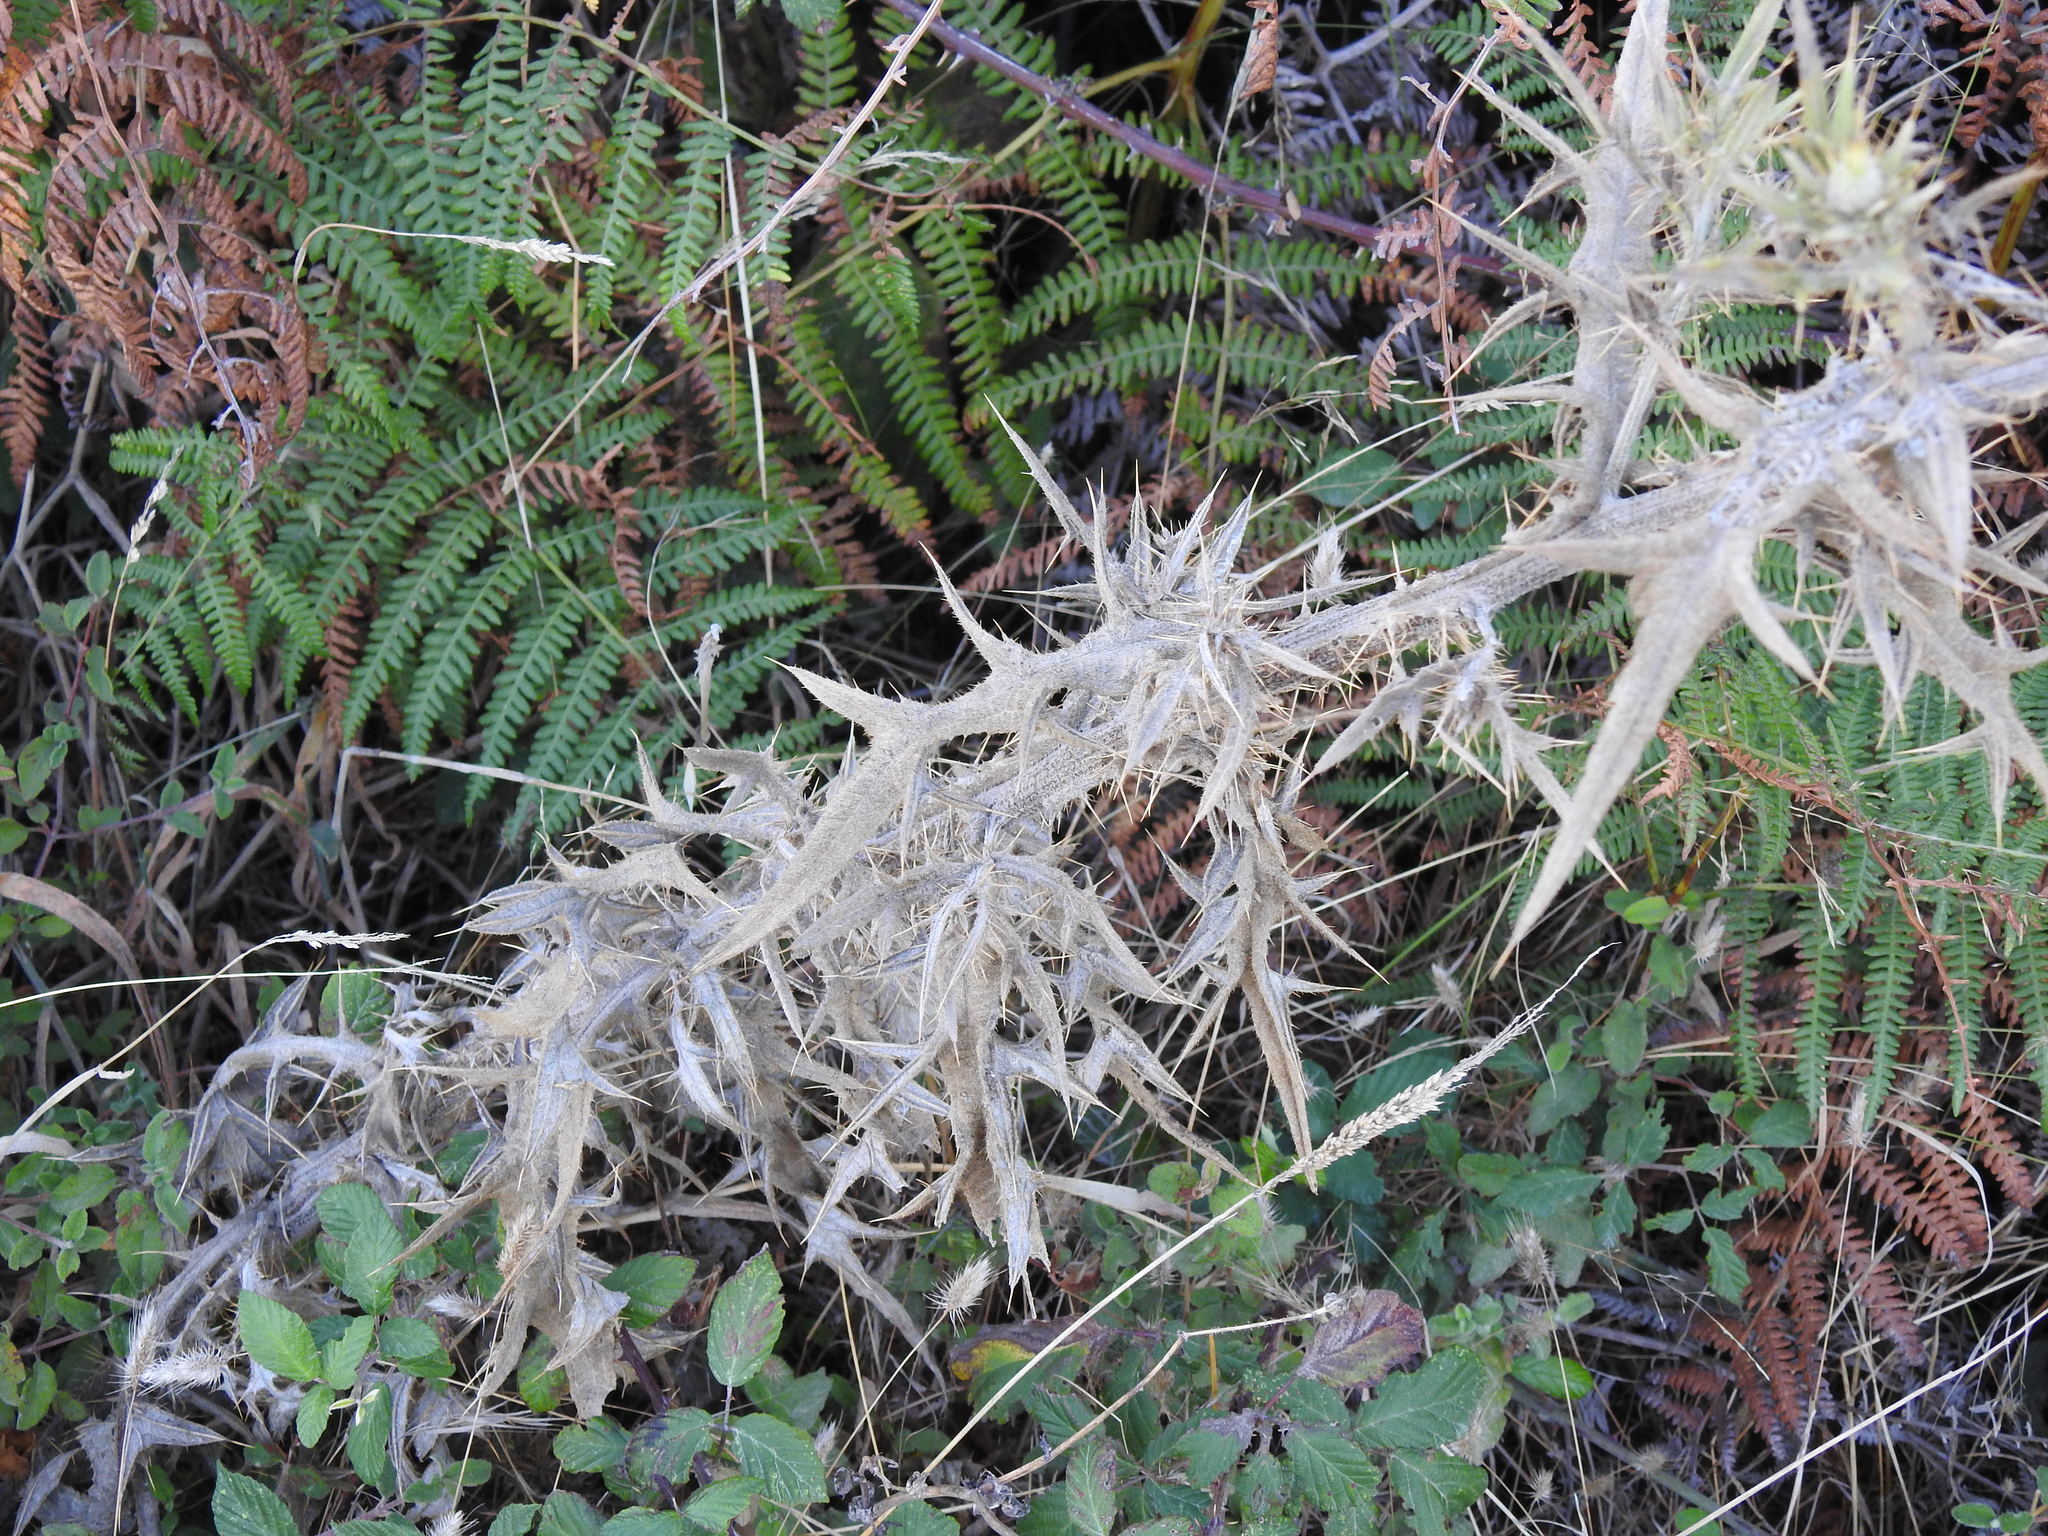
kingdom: Plantae
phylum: Tracheophyta
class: Magnoliopsida
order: Asterales
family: Asteraceae
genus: Cirsium
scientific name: Cirsium vulgare
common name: Bull thistle
